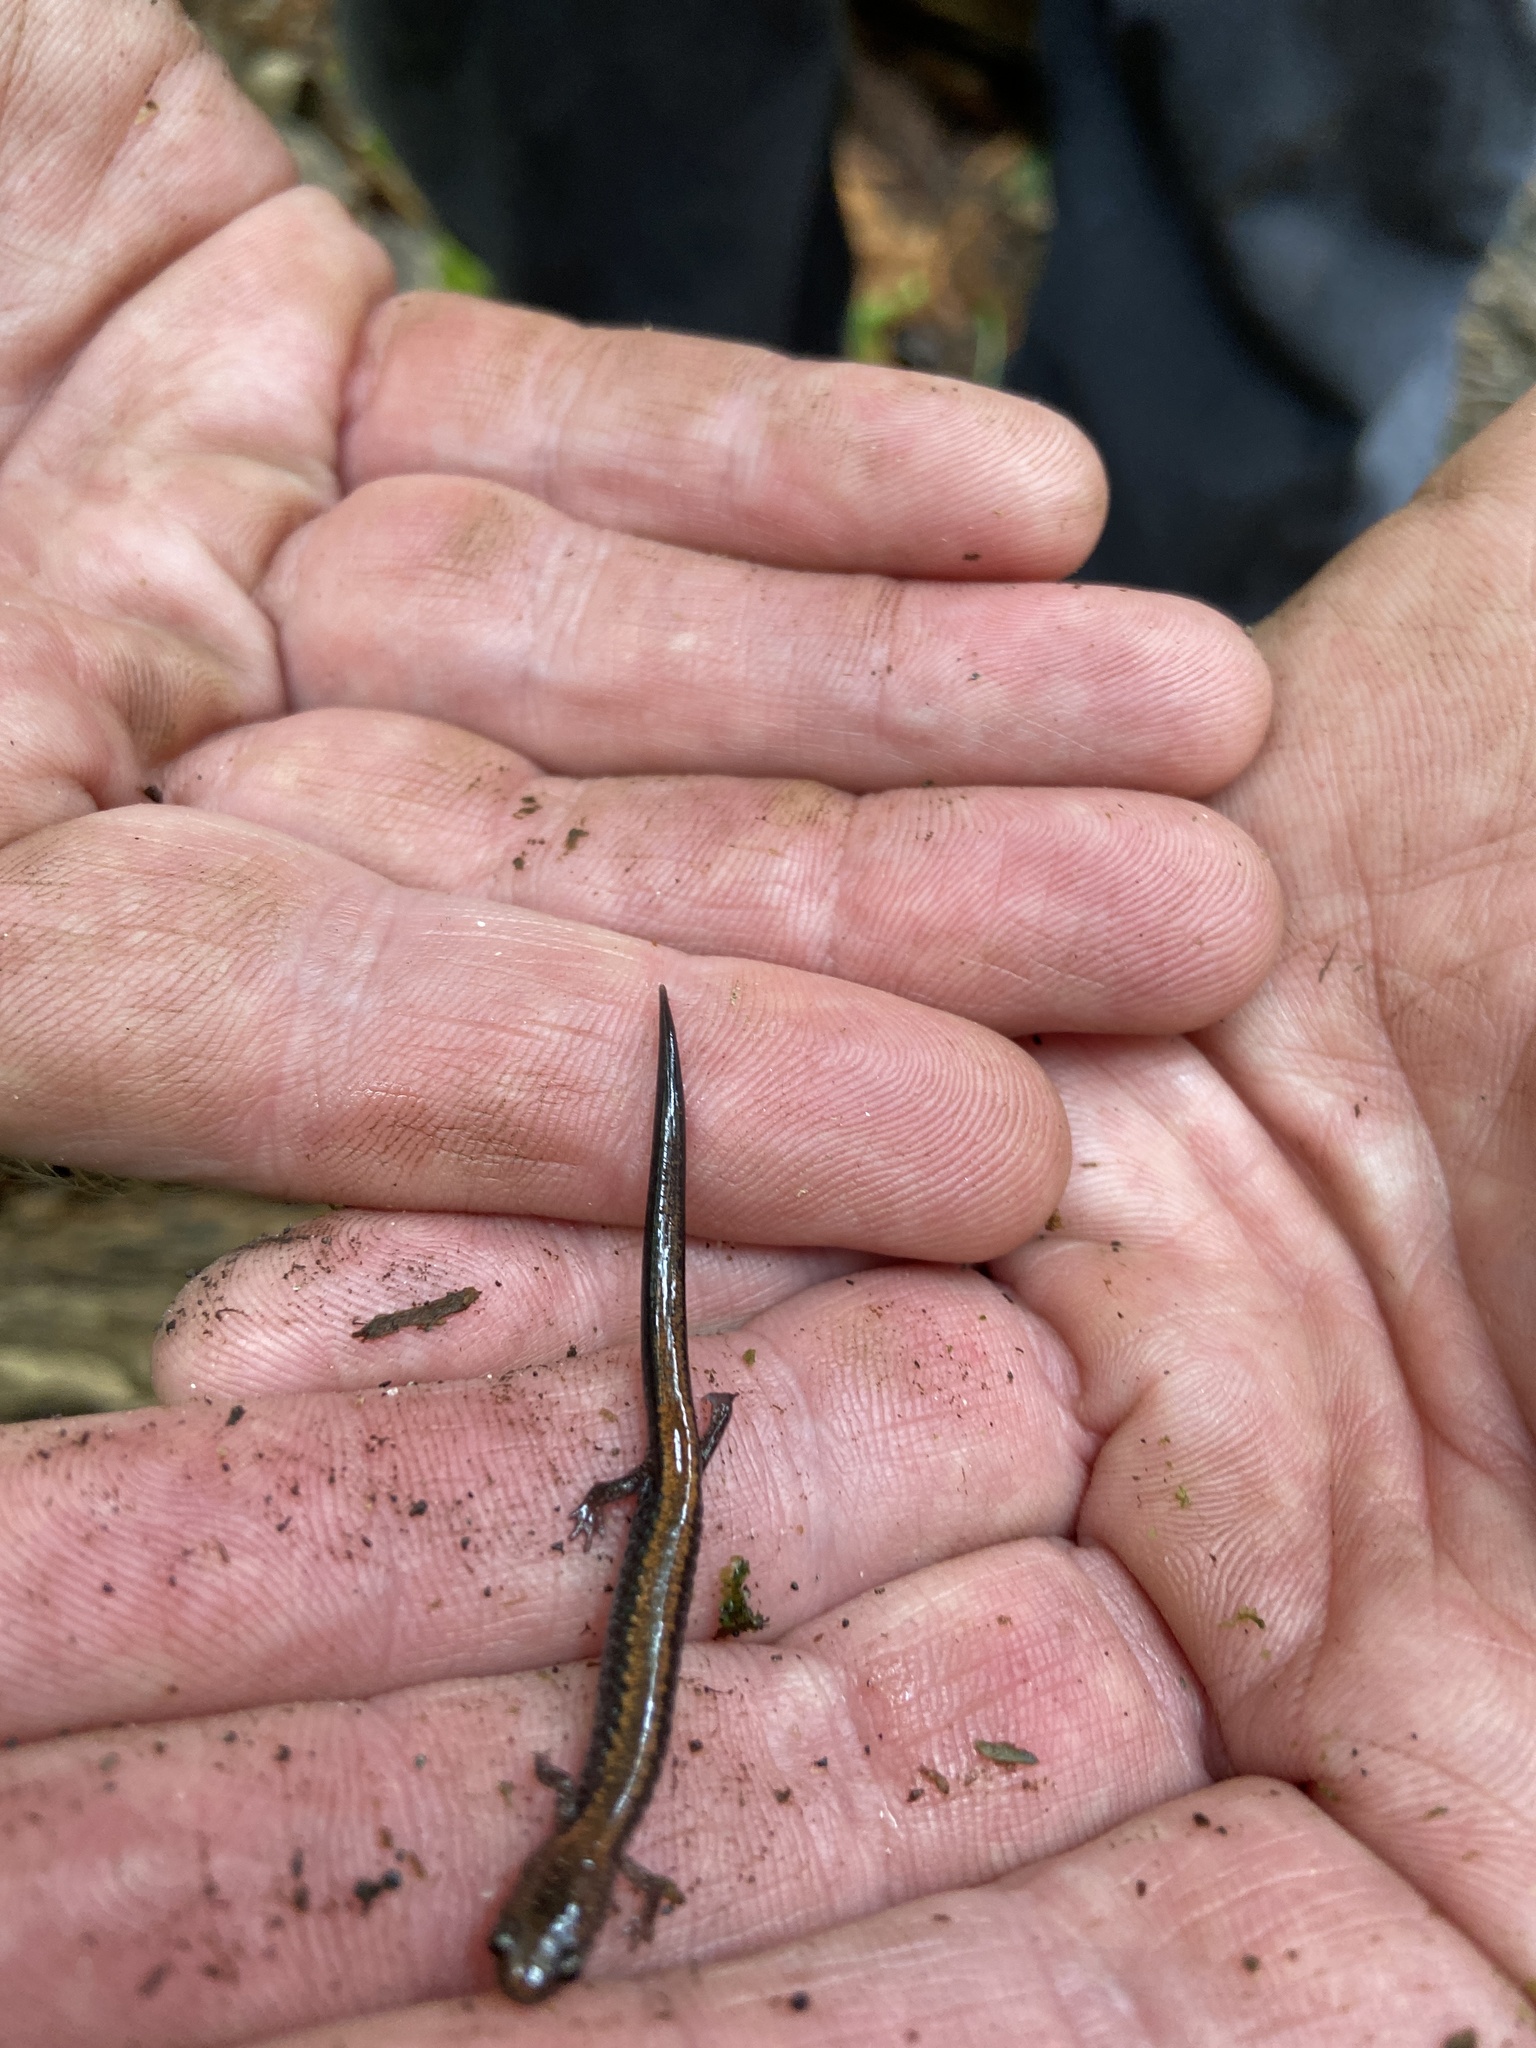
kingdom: Animalia
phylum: Chordata
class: Amphibia
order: Caudata
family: Plethodontidae
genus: Plethodon
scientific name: Plethodon cinereus
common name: Redback salamander
